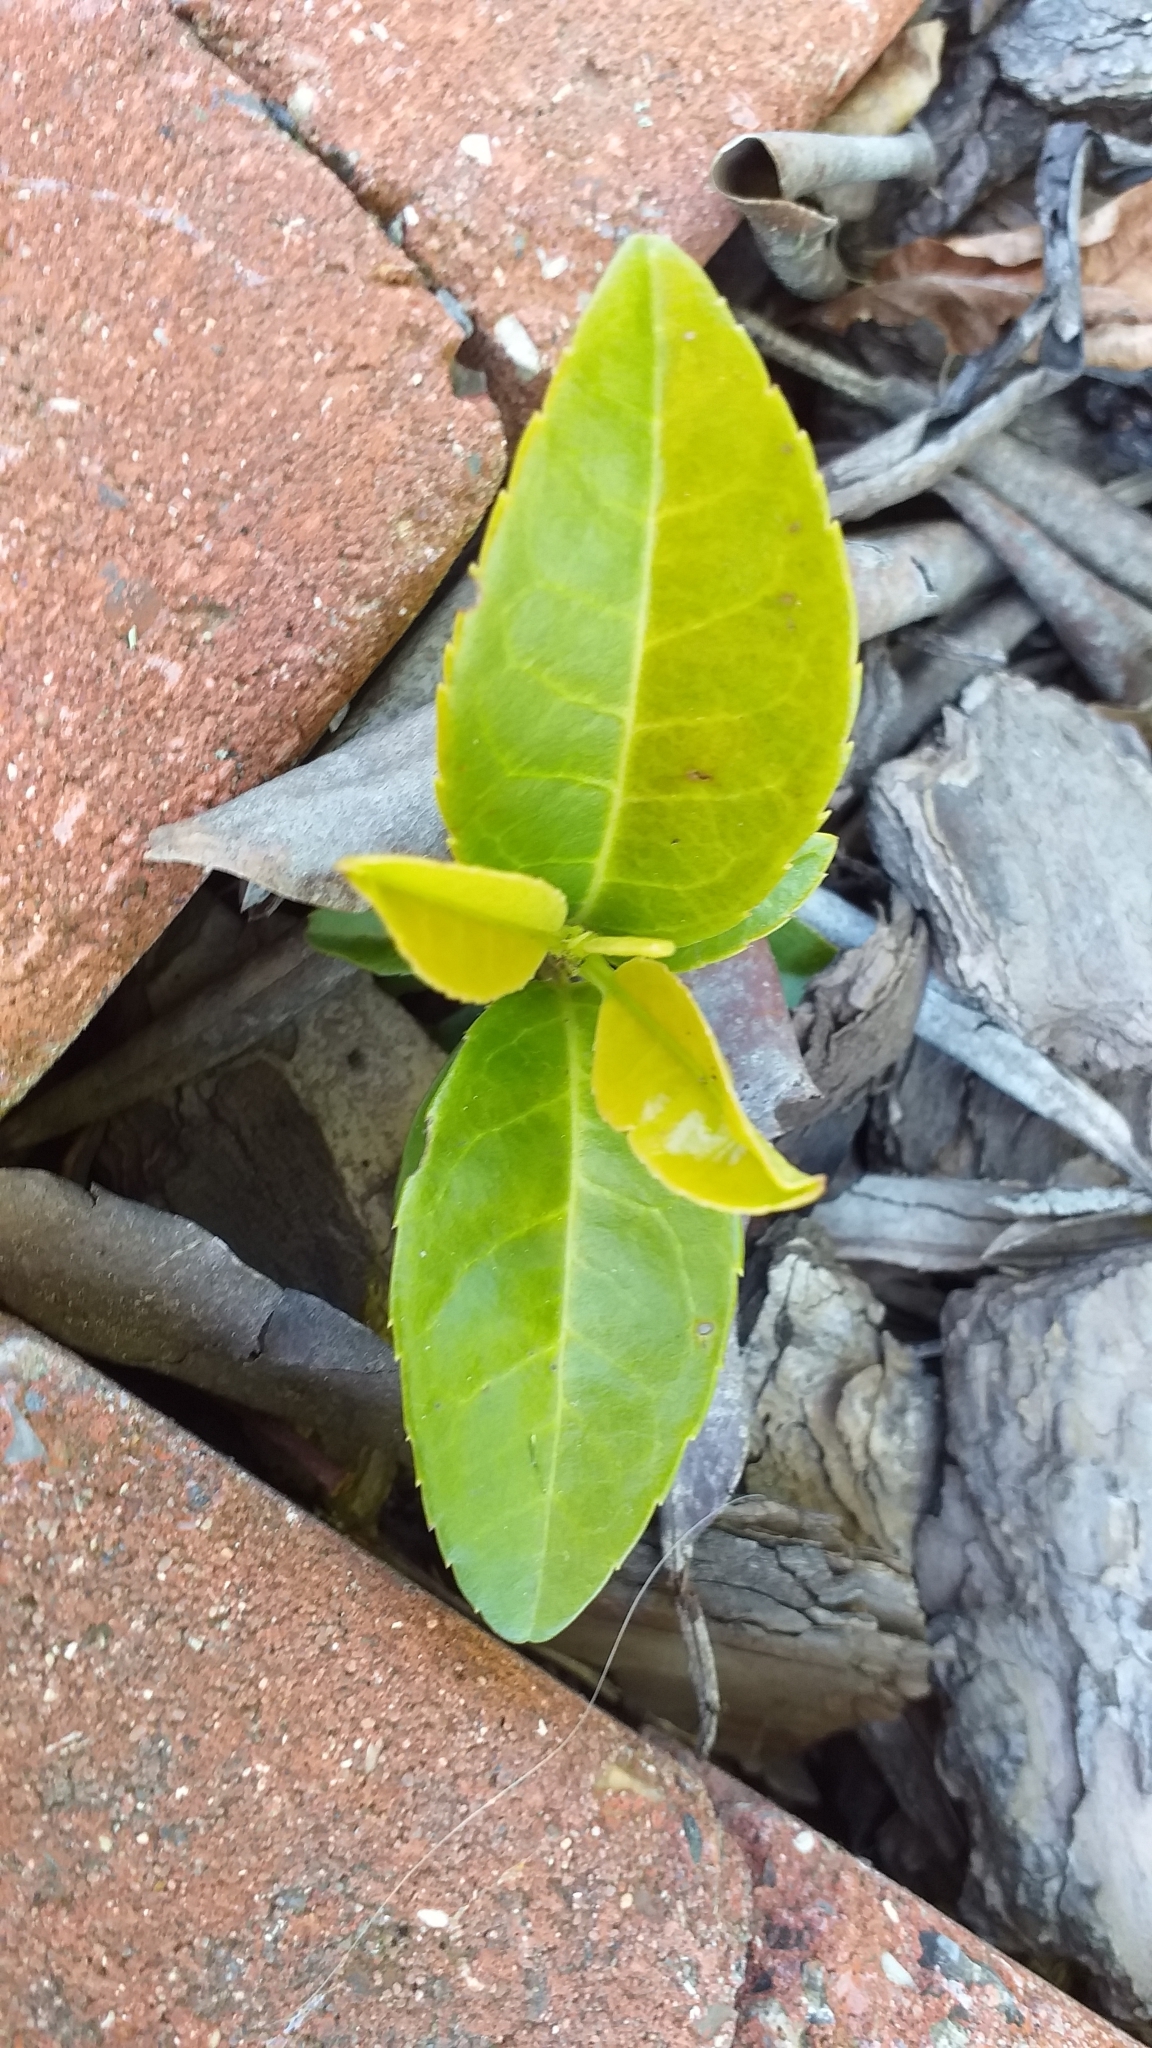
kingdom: Plantae
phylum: Tracheophyta
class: Magnoliopsida
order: Rosales
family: Rosaceae
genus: Prunus
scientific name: Prunus laurocerasus
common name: Cherry laurel
